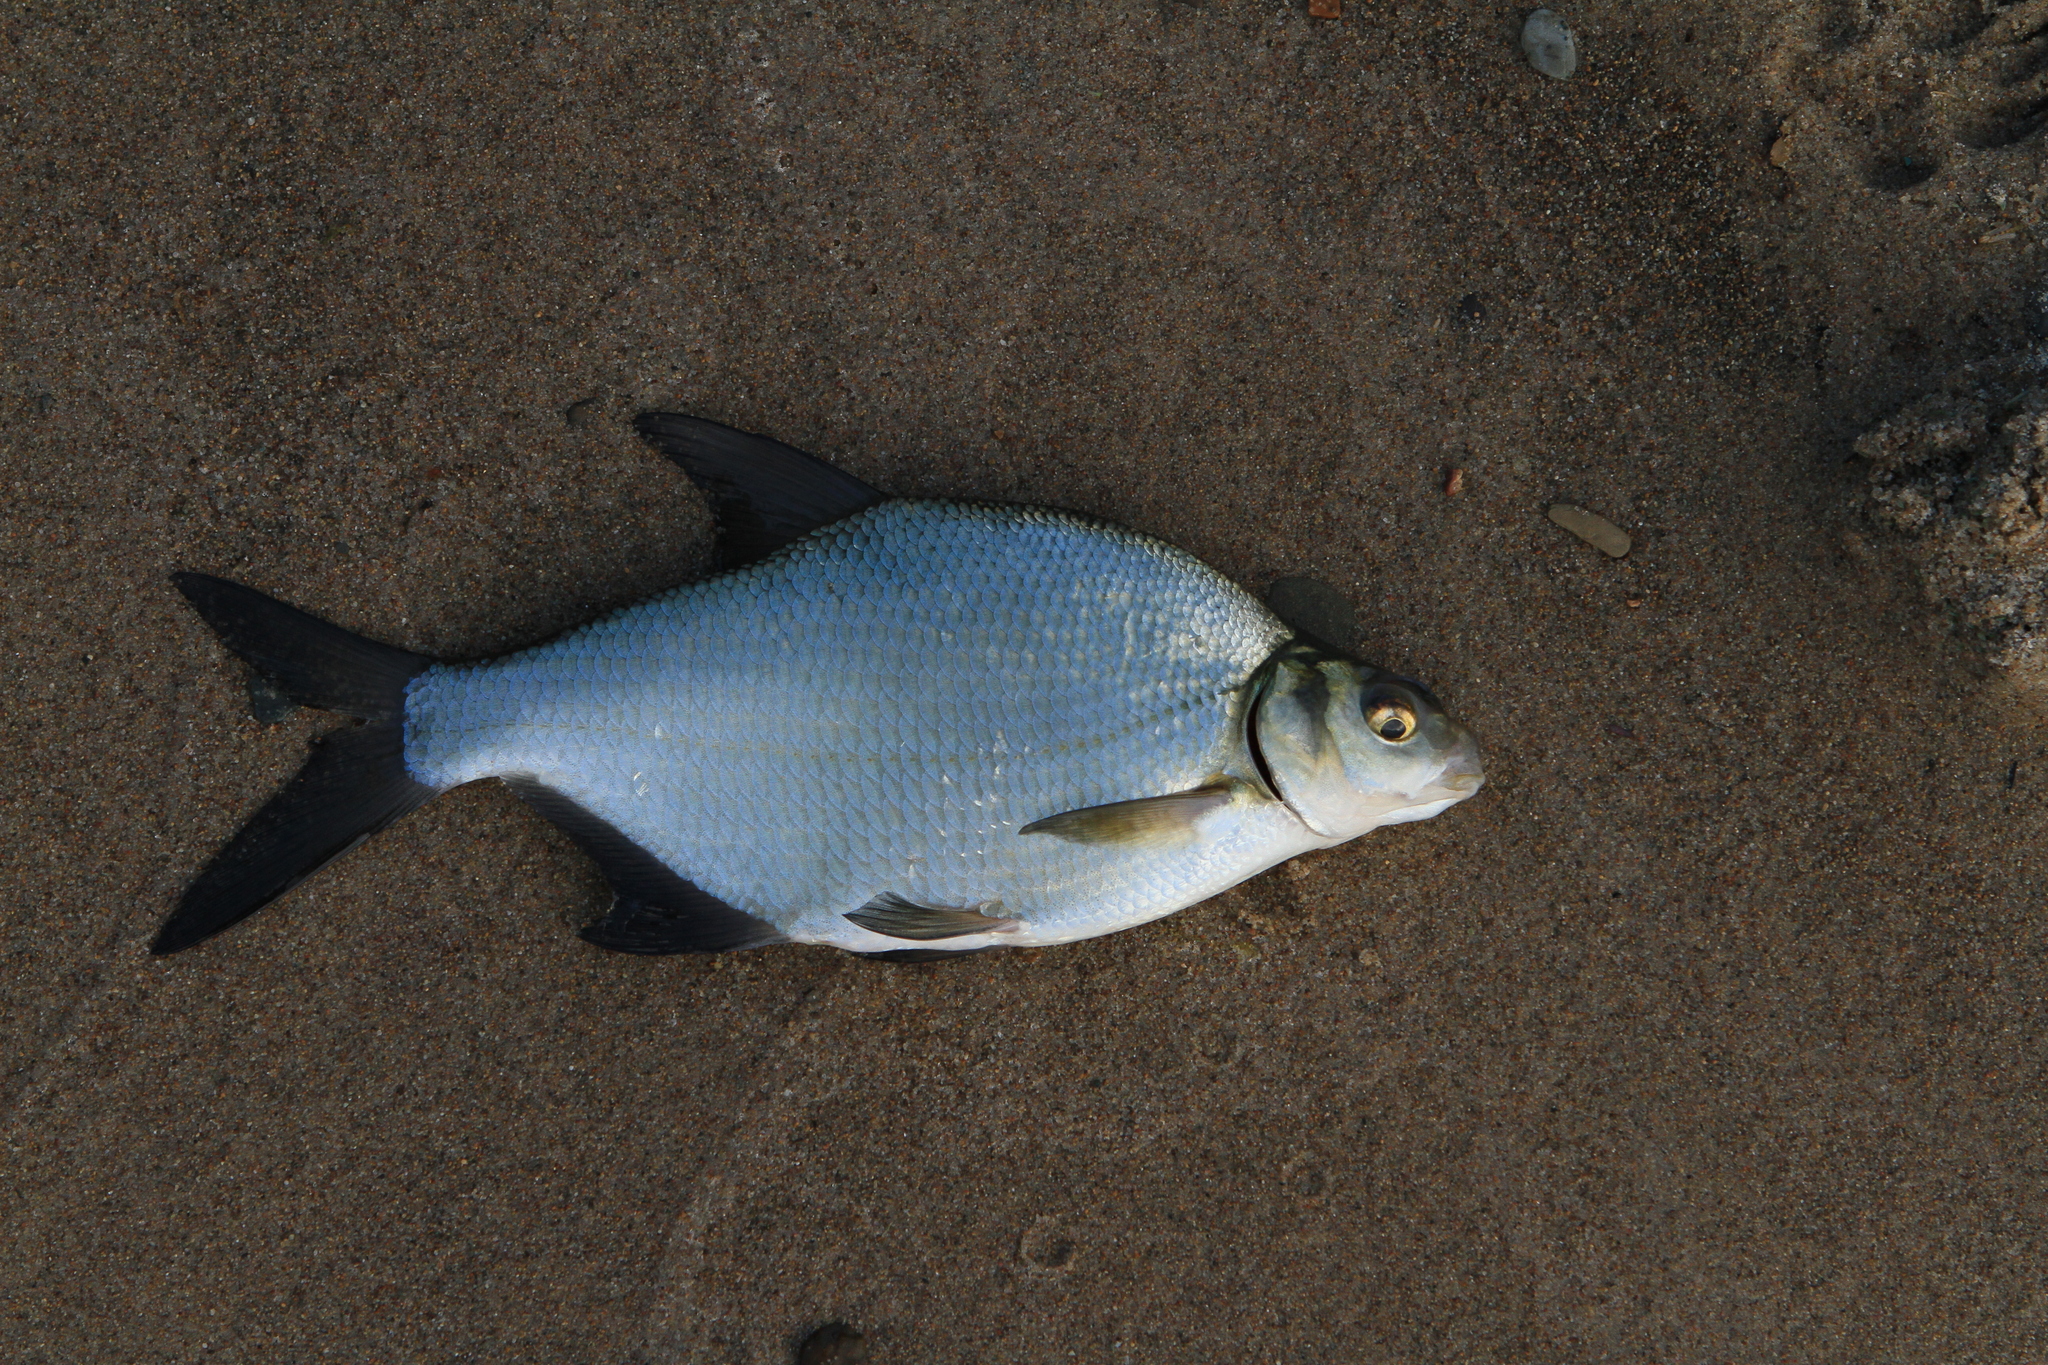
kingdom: Animalia
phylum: Chordata
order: Cypriniformes
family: Cyprinidae
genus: Abramis
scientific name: Abramis brama
